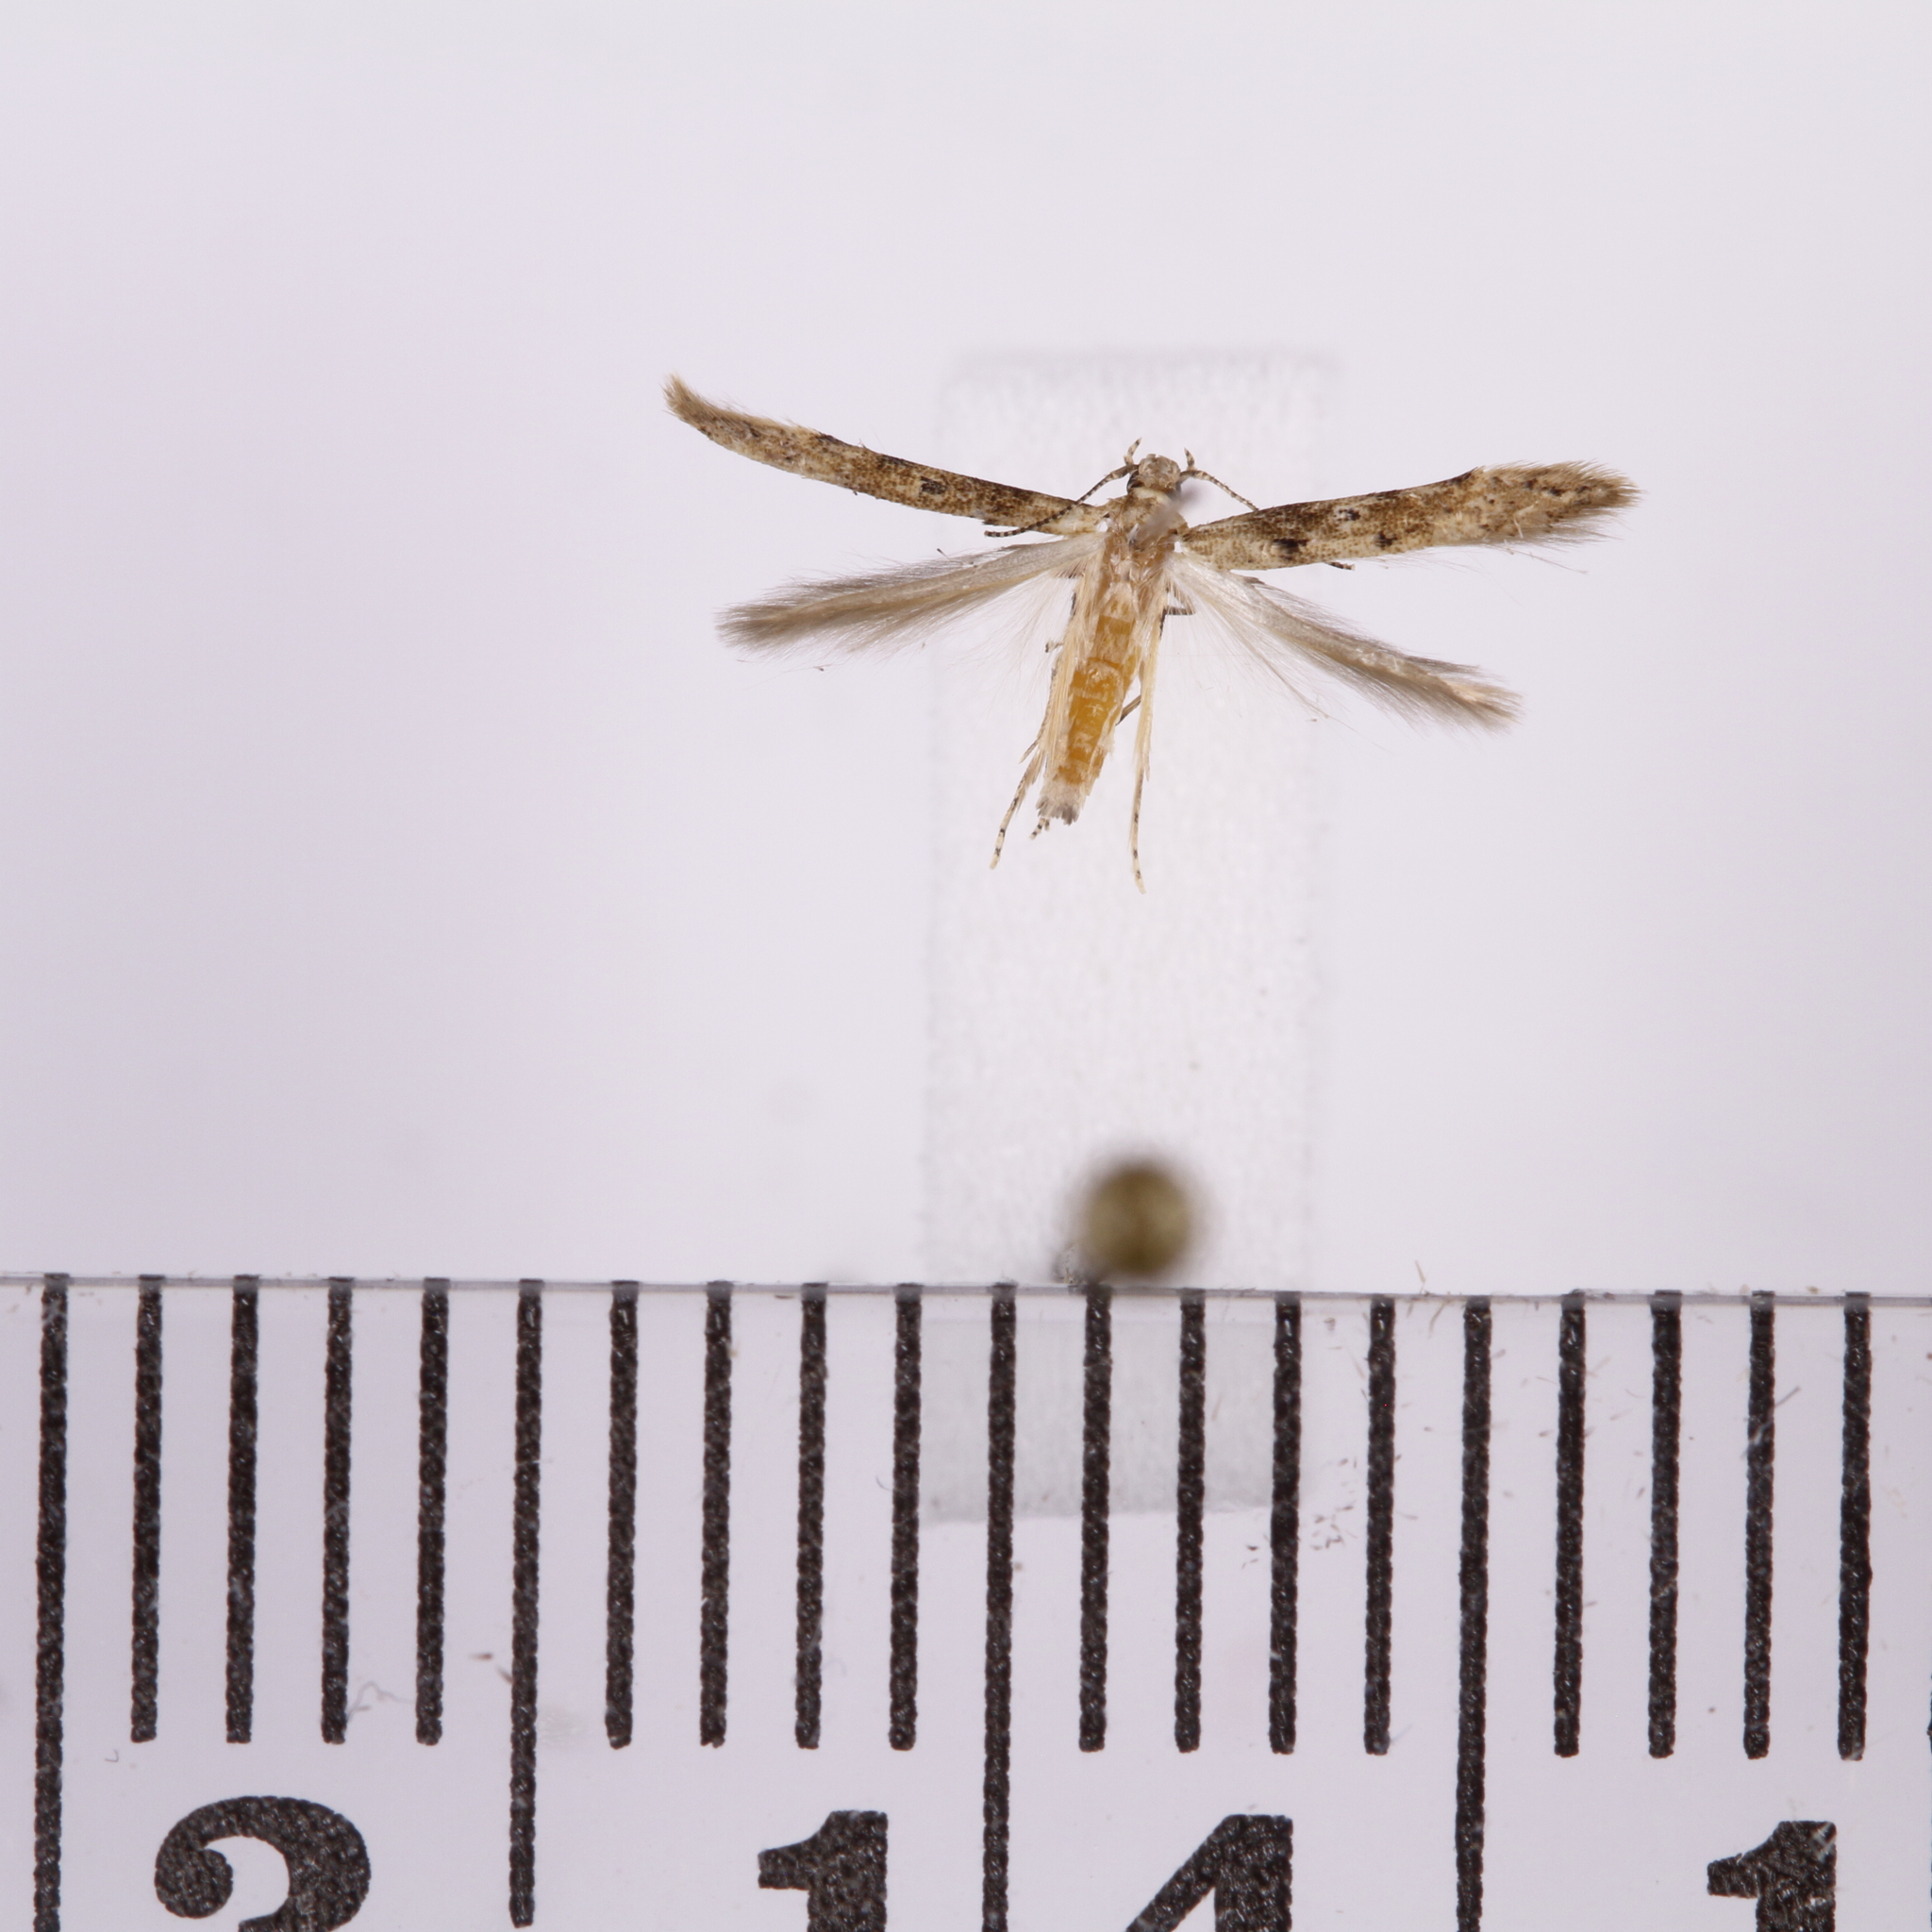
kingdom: Animalia
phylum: Arthropoda
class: Insecta
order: Lepidoptera
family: Elachistidae
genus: Microcolona
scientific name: Microcolona limodes
